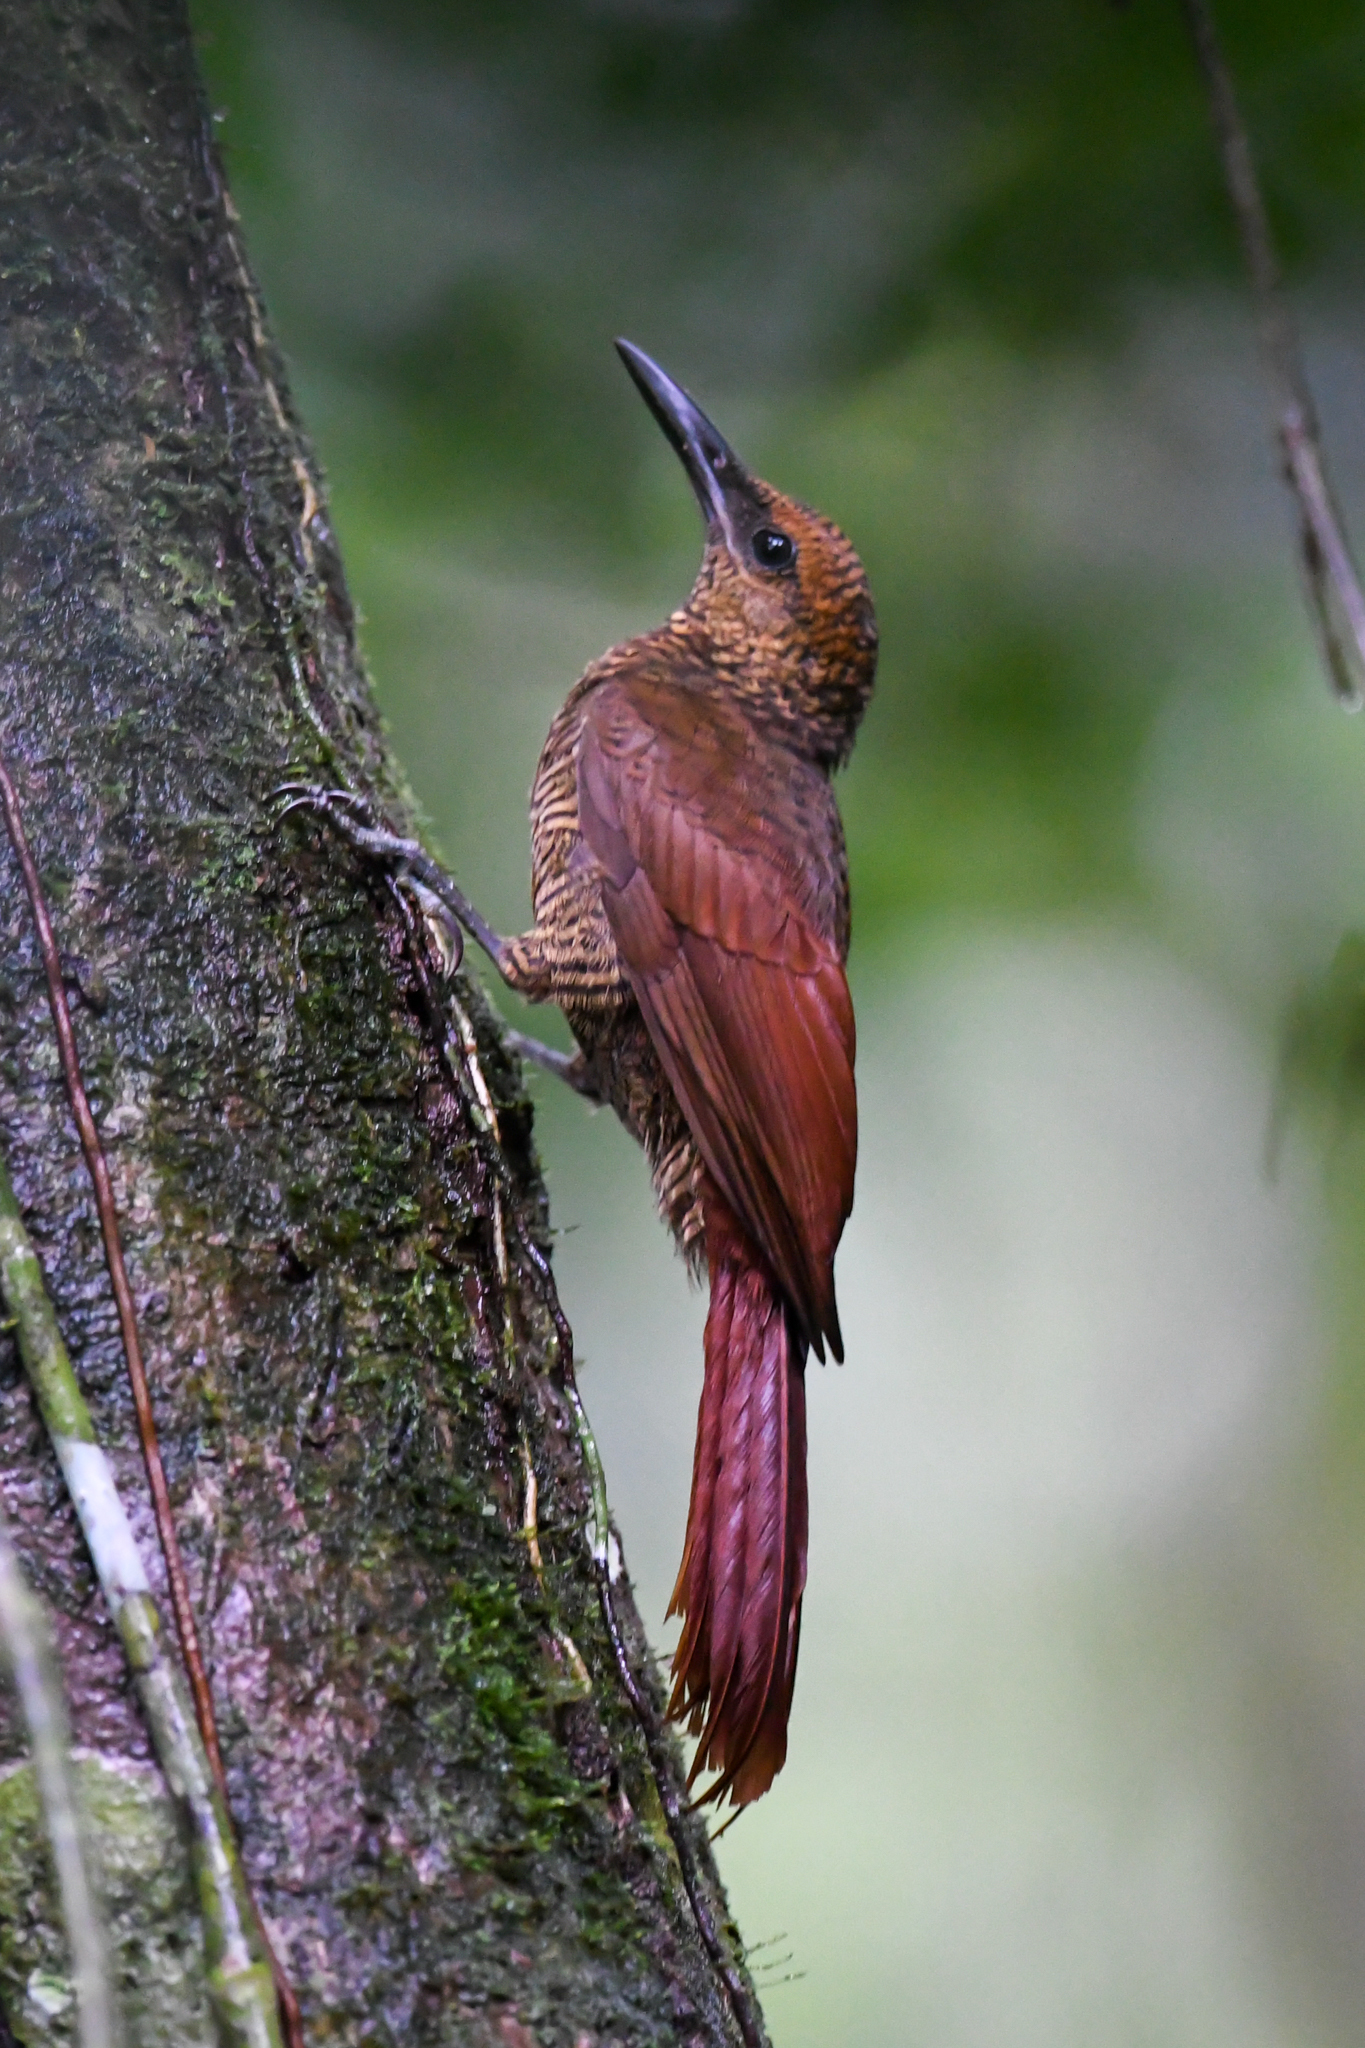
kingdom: Animalia
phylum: Chordata
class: Aves
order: Passeriformes
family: Furnariidae
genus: Dendrocolaptes
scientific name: Dendrocolaptes sanctithomae
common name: Northern barred-woodcreeper
